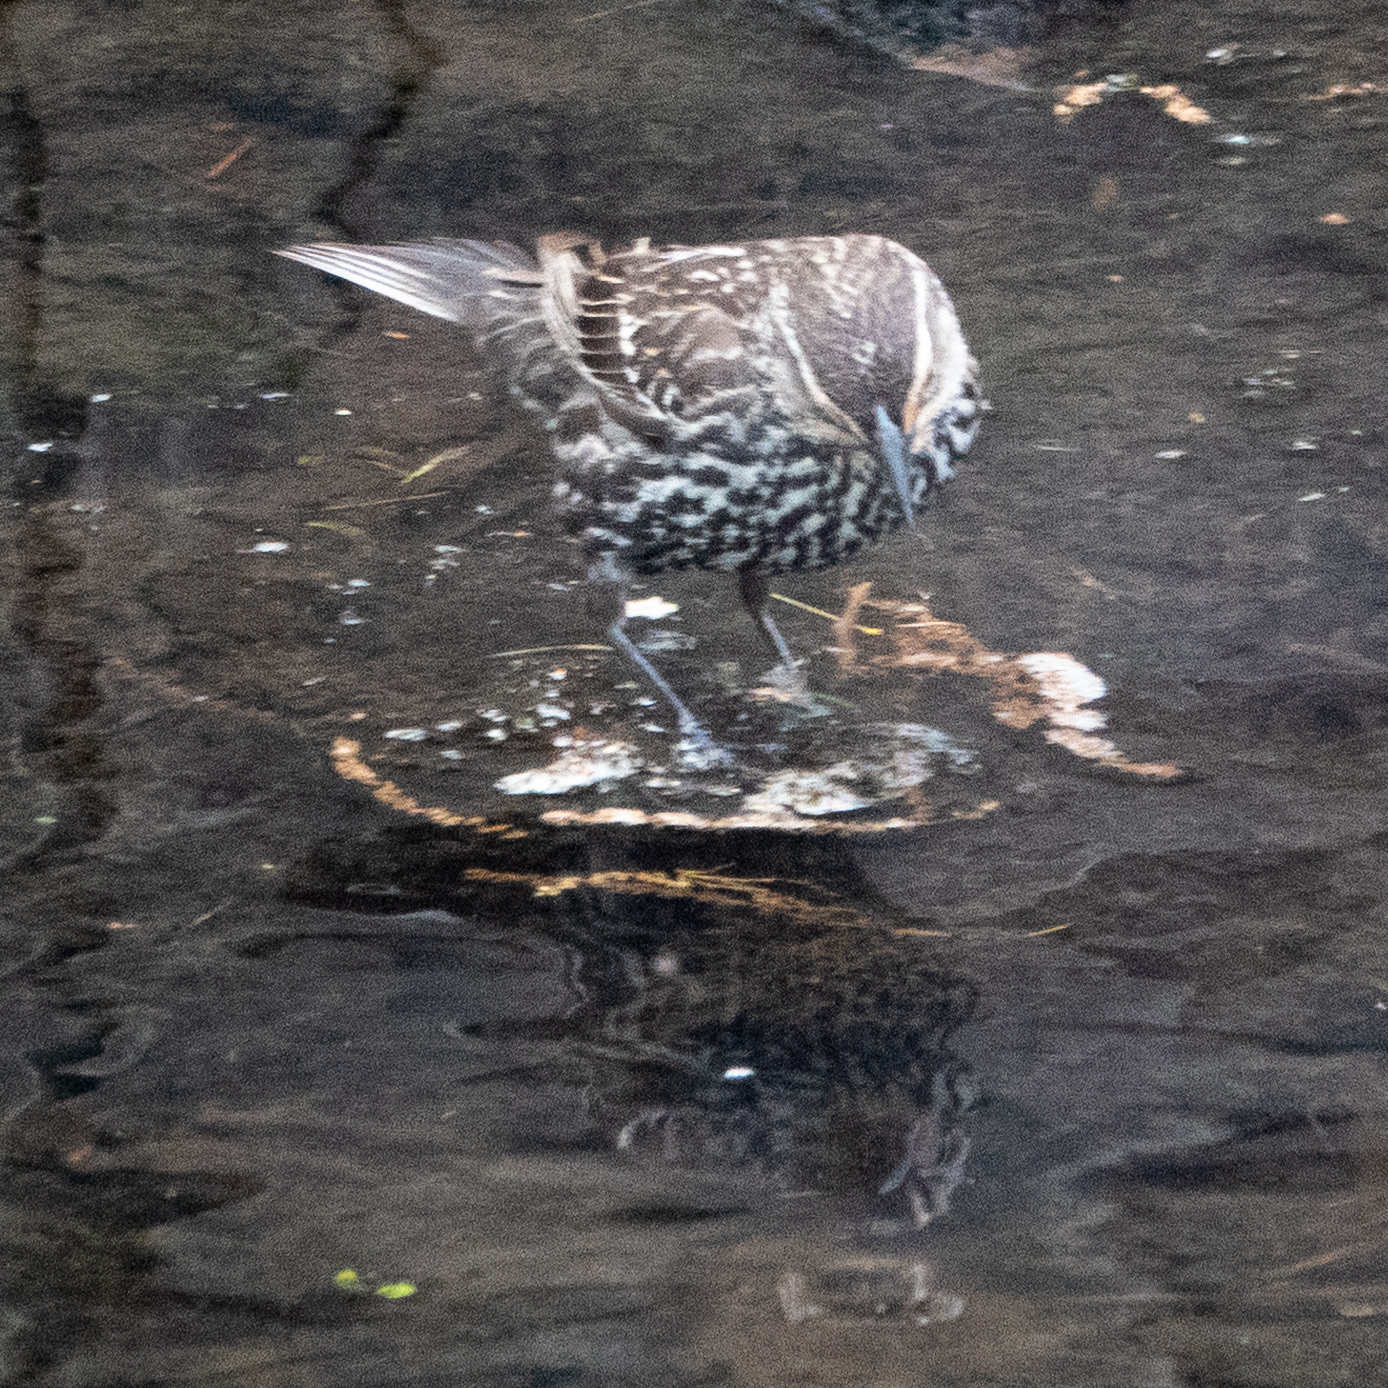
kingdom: Animalia
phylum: Chordata
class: Aves
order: Passeriformes
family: Icteridae
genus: Agelaius
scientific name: Agelaius phoeniceus
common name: Red-winged blackbird
